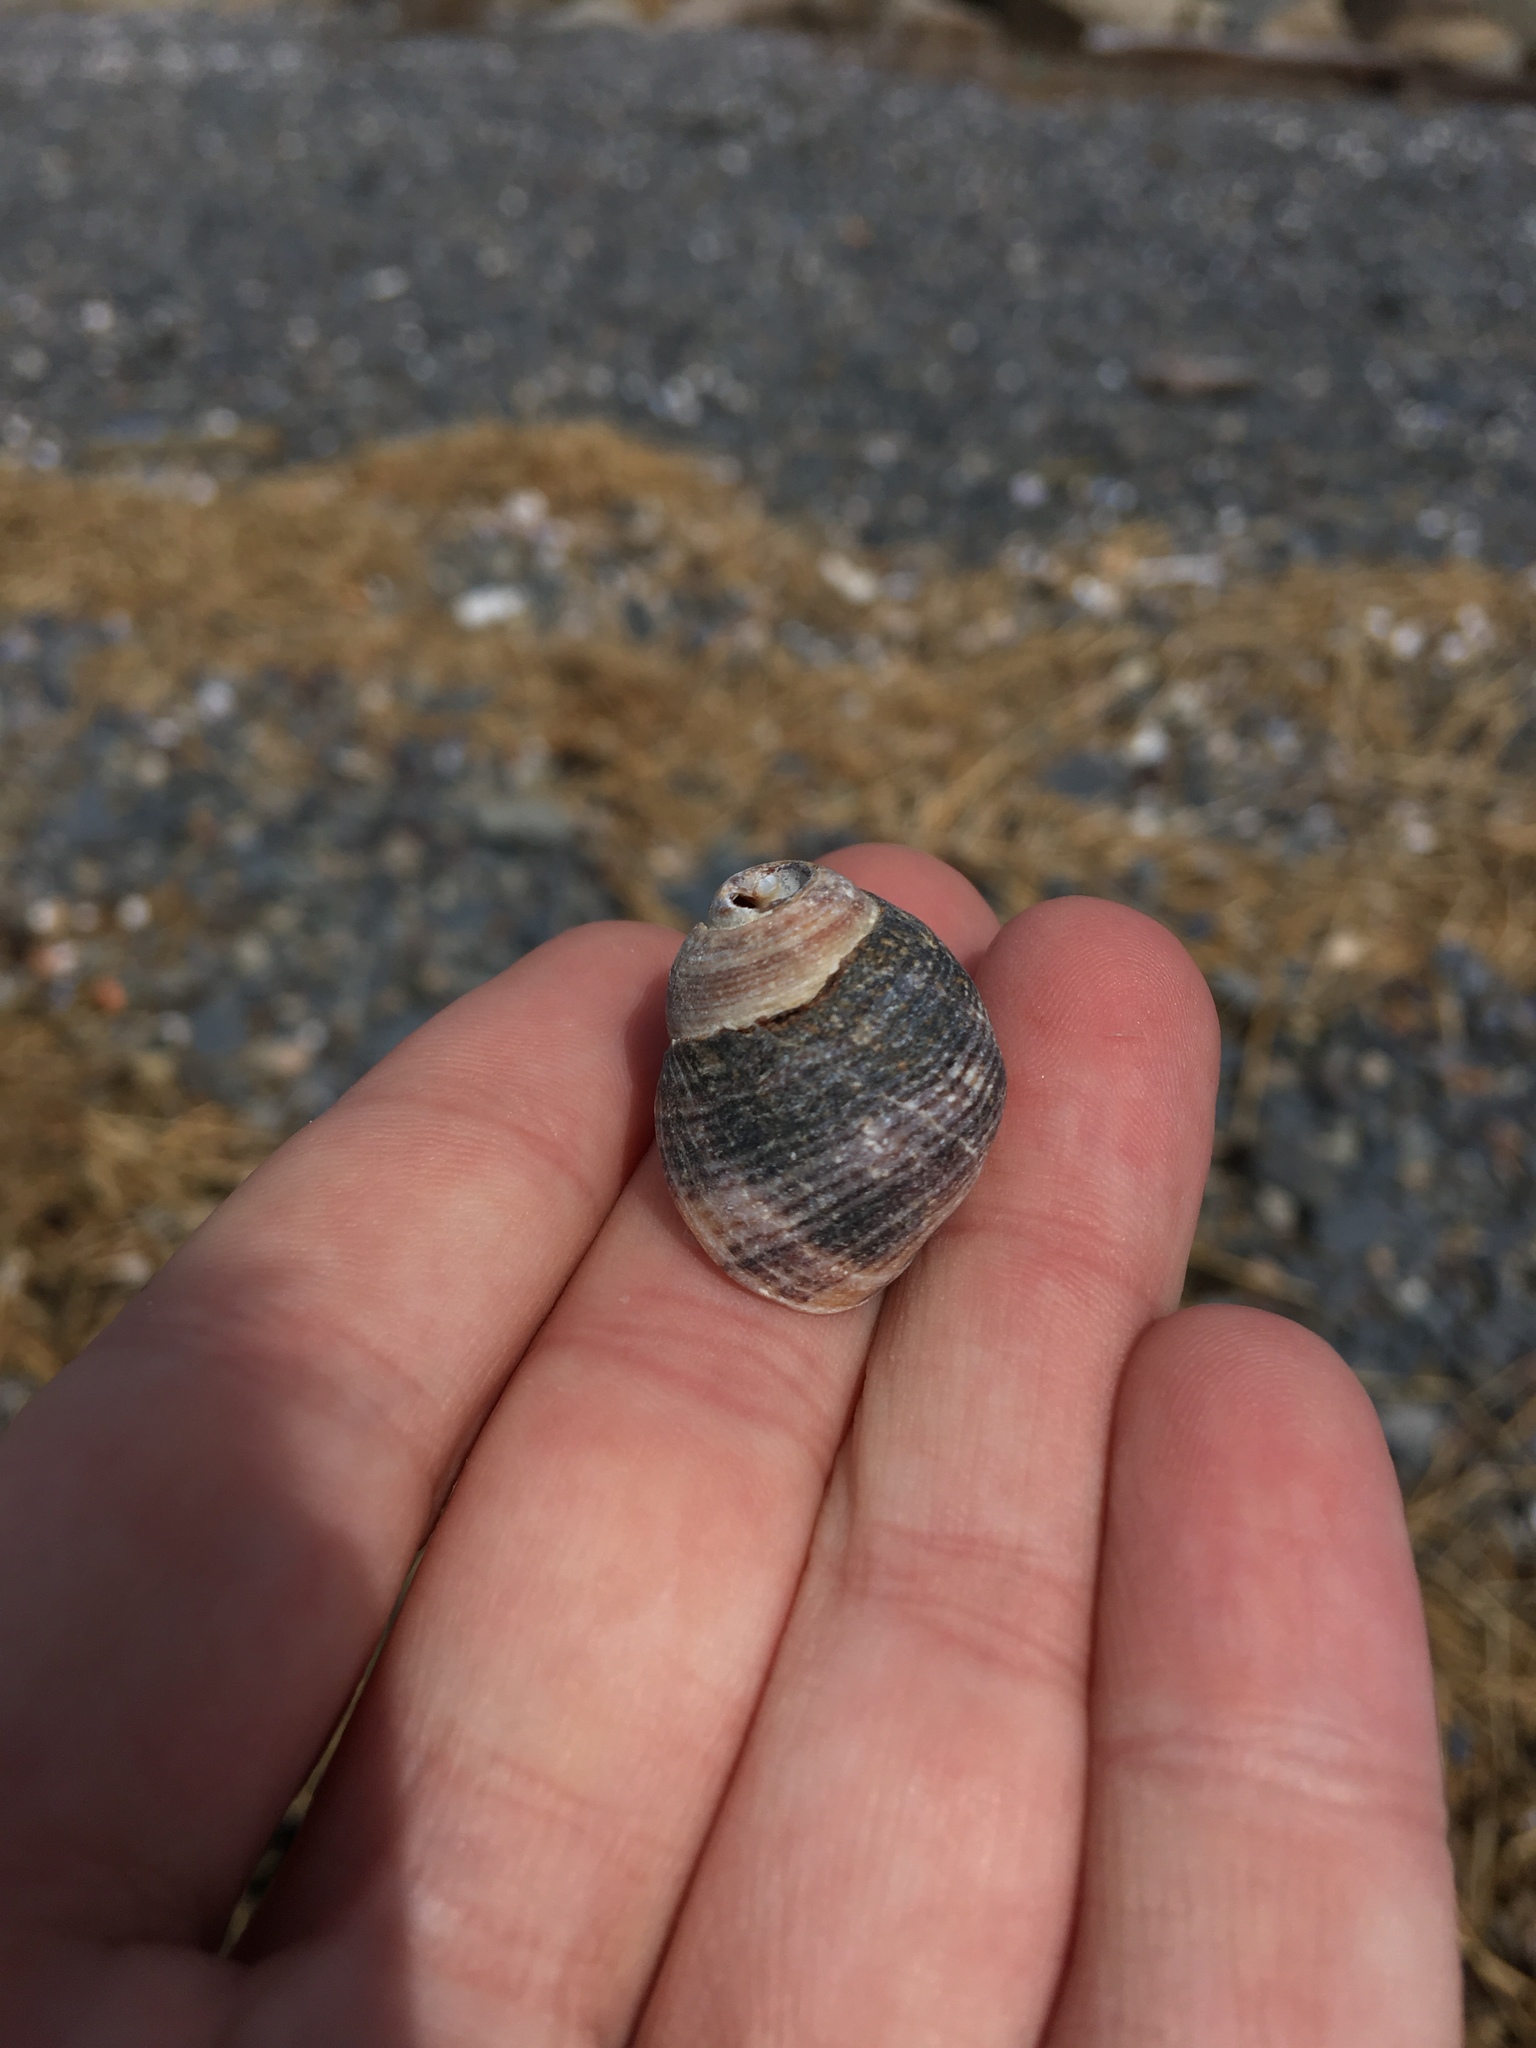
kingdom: Animalia
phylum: Mollusca
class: Gastropoda
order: Littorinimorpha
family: Littorinidae
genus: Littorina
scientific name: Littorina littorea
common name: Common periwinkle
